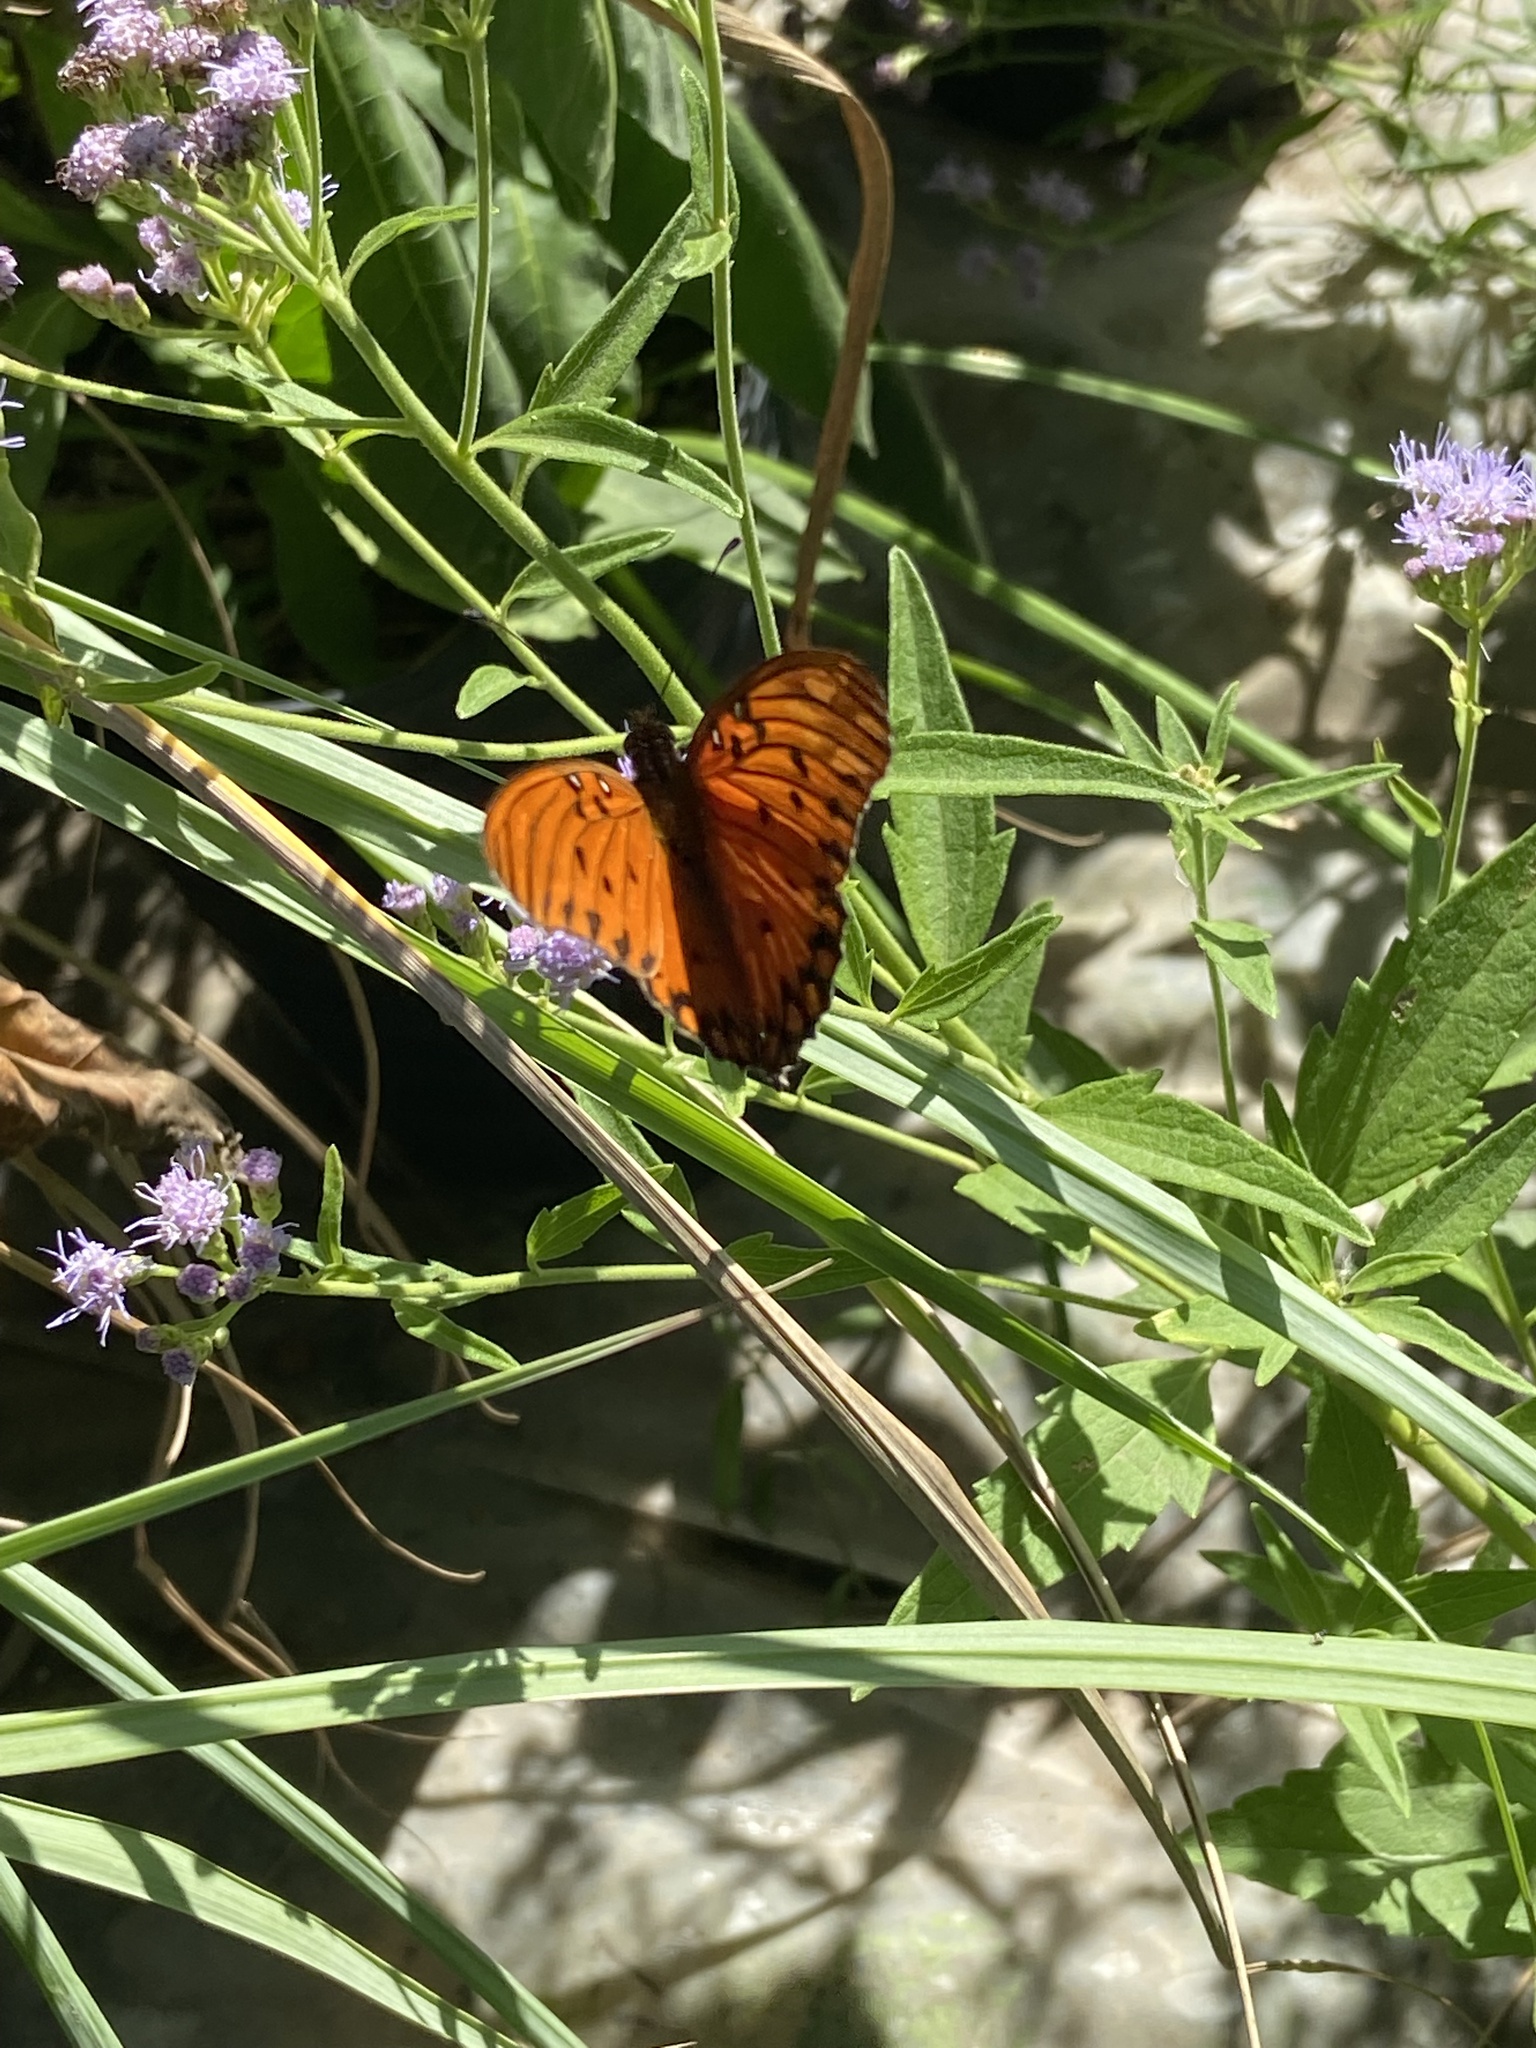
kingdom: Animalia
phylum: Arthropoda
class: Insecta
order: Lepidoptera
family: Nymphalidae
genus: Dione
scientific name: Dione vanillae
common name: Gulf fritillary
